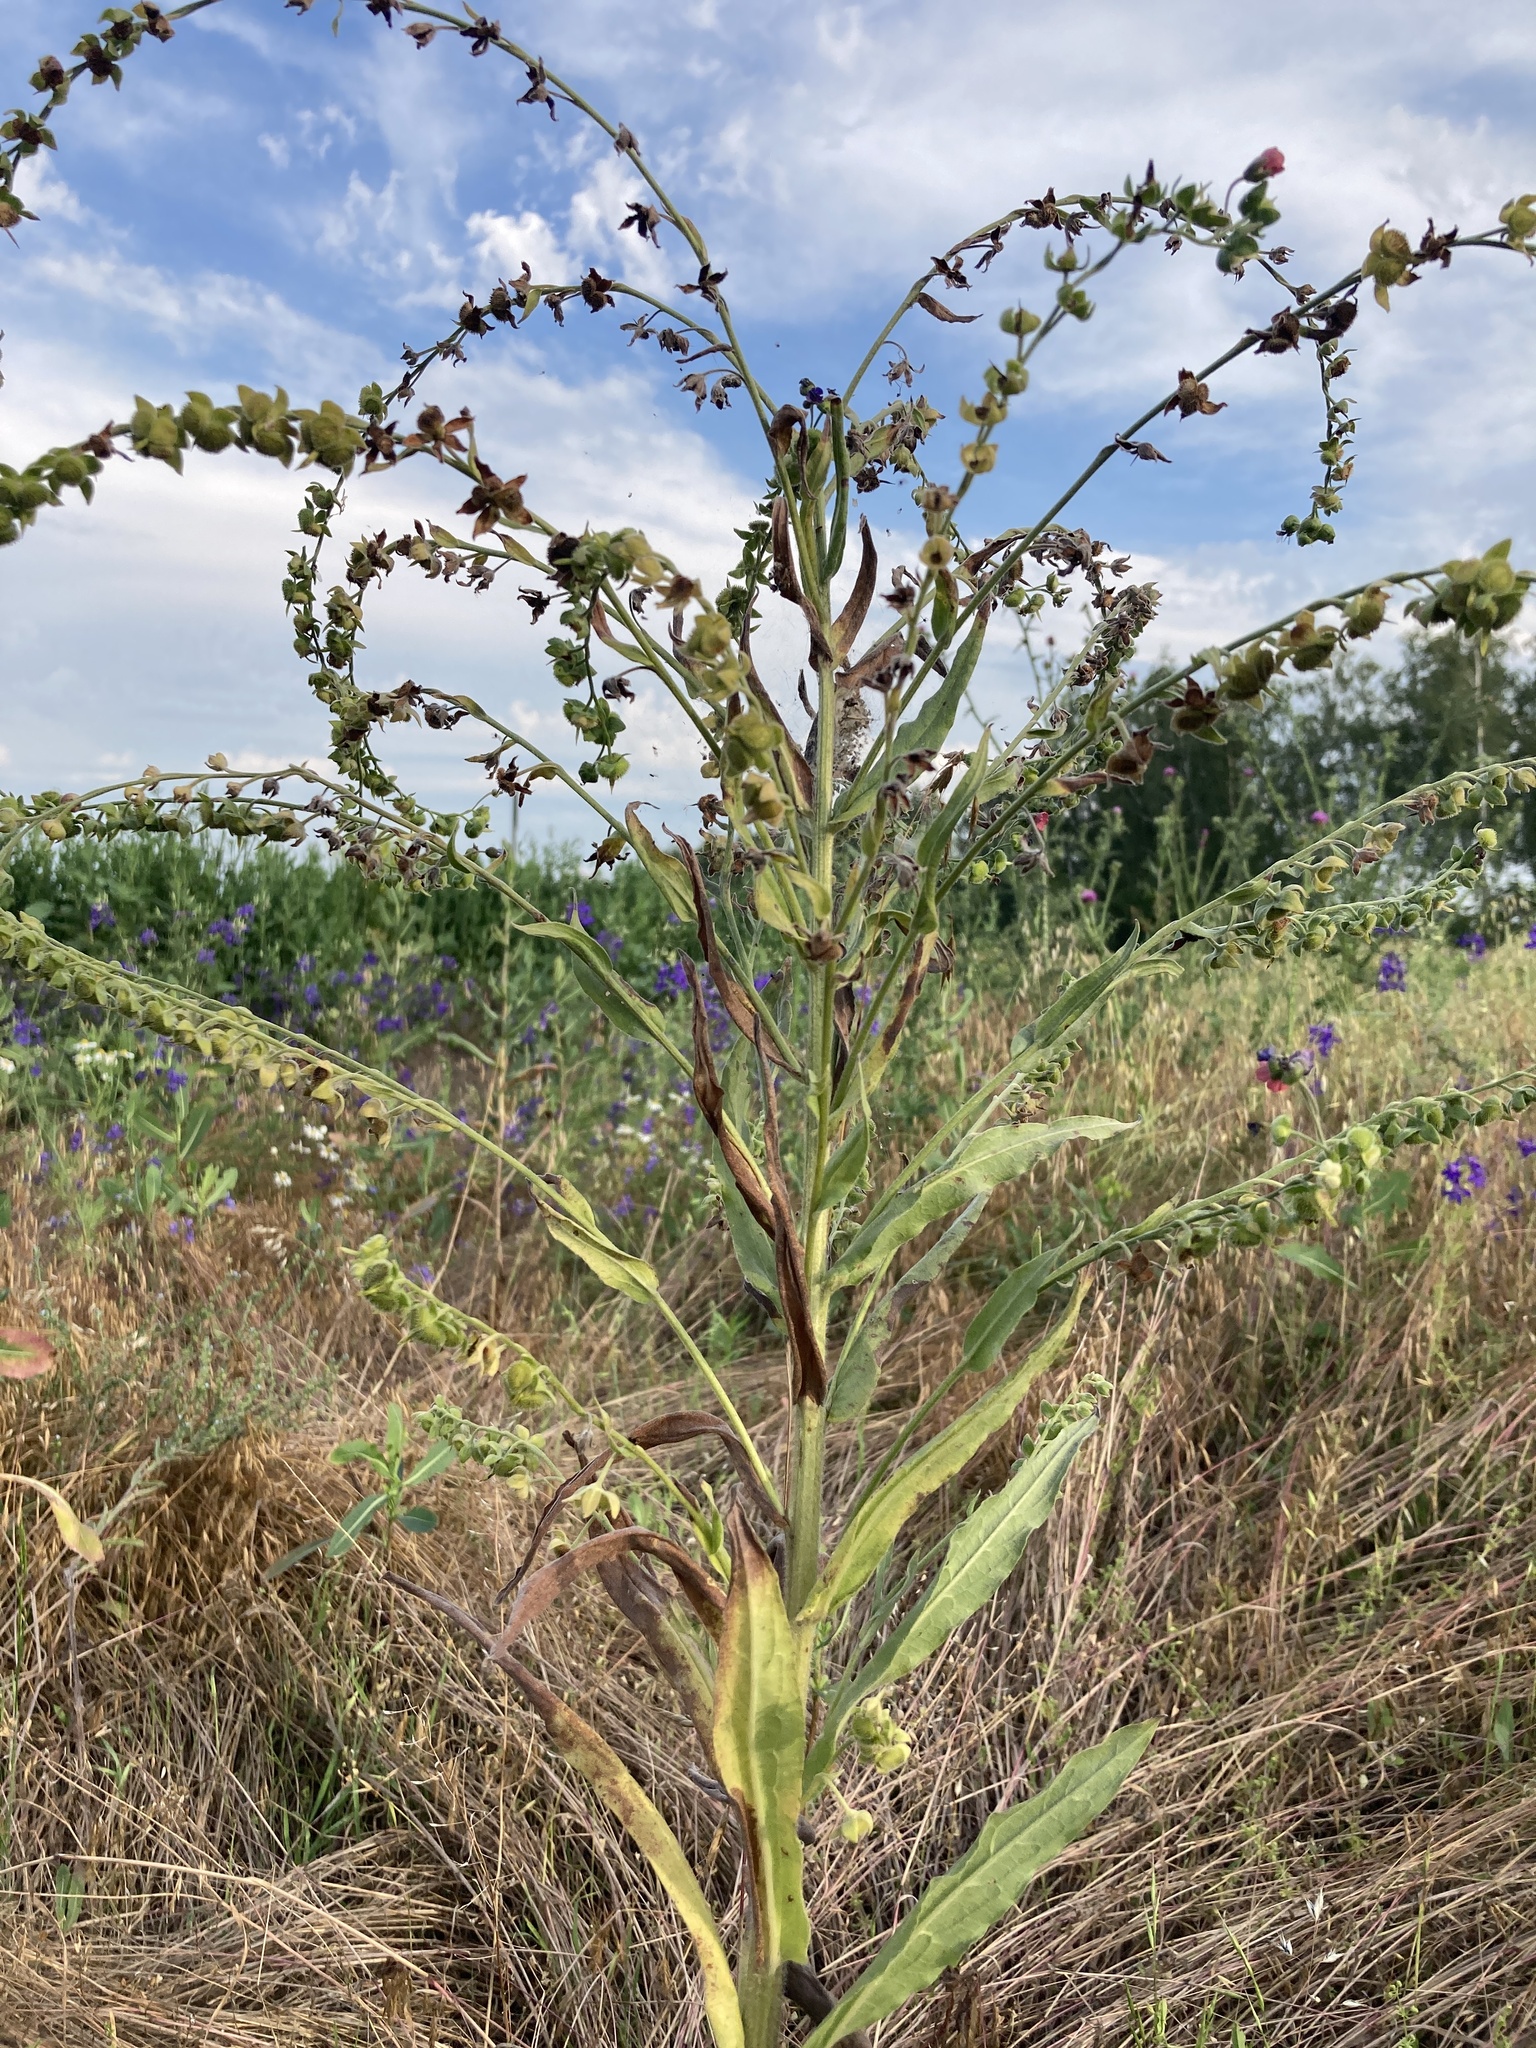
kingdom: Plantae
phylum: Tracheophyta
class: Magnoliopsida
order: Boraginales
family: Boraginaceae
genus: Cynoglossum
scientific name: Cynoglossum officinale
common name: Hound's-tongue
